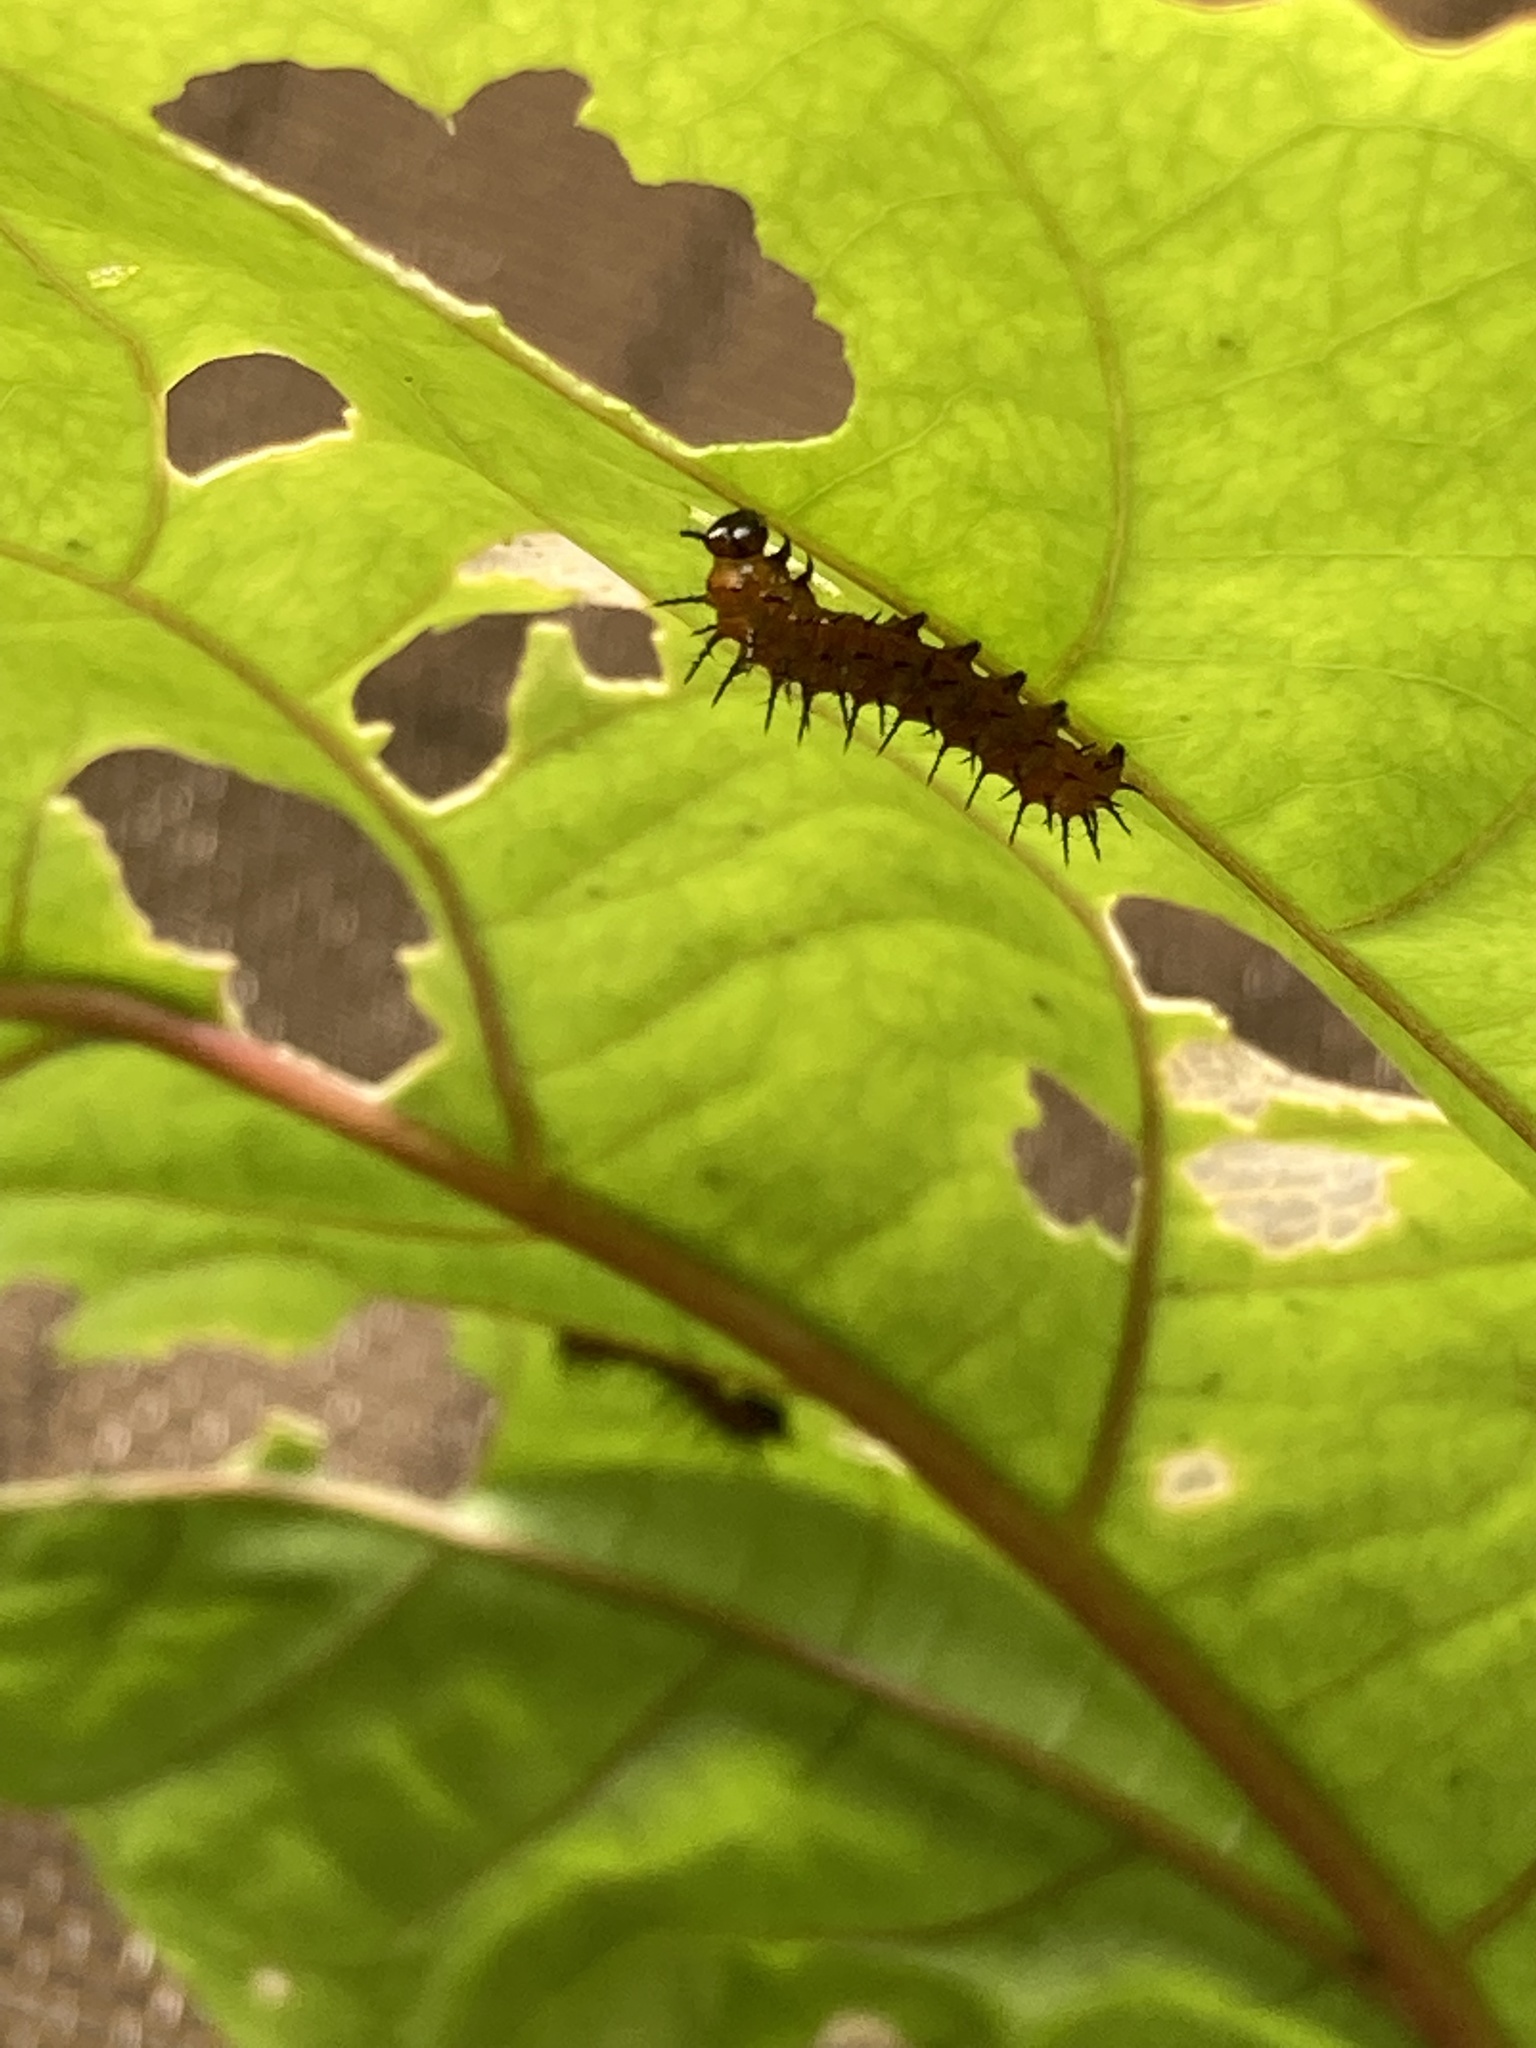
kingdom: Animalia
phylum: Arthropoda
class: Insecta
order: Lepidoptera
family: Nymphalidae
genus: Dione
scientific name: Dione vanillae
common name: Gulf fritillary
